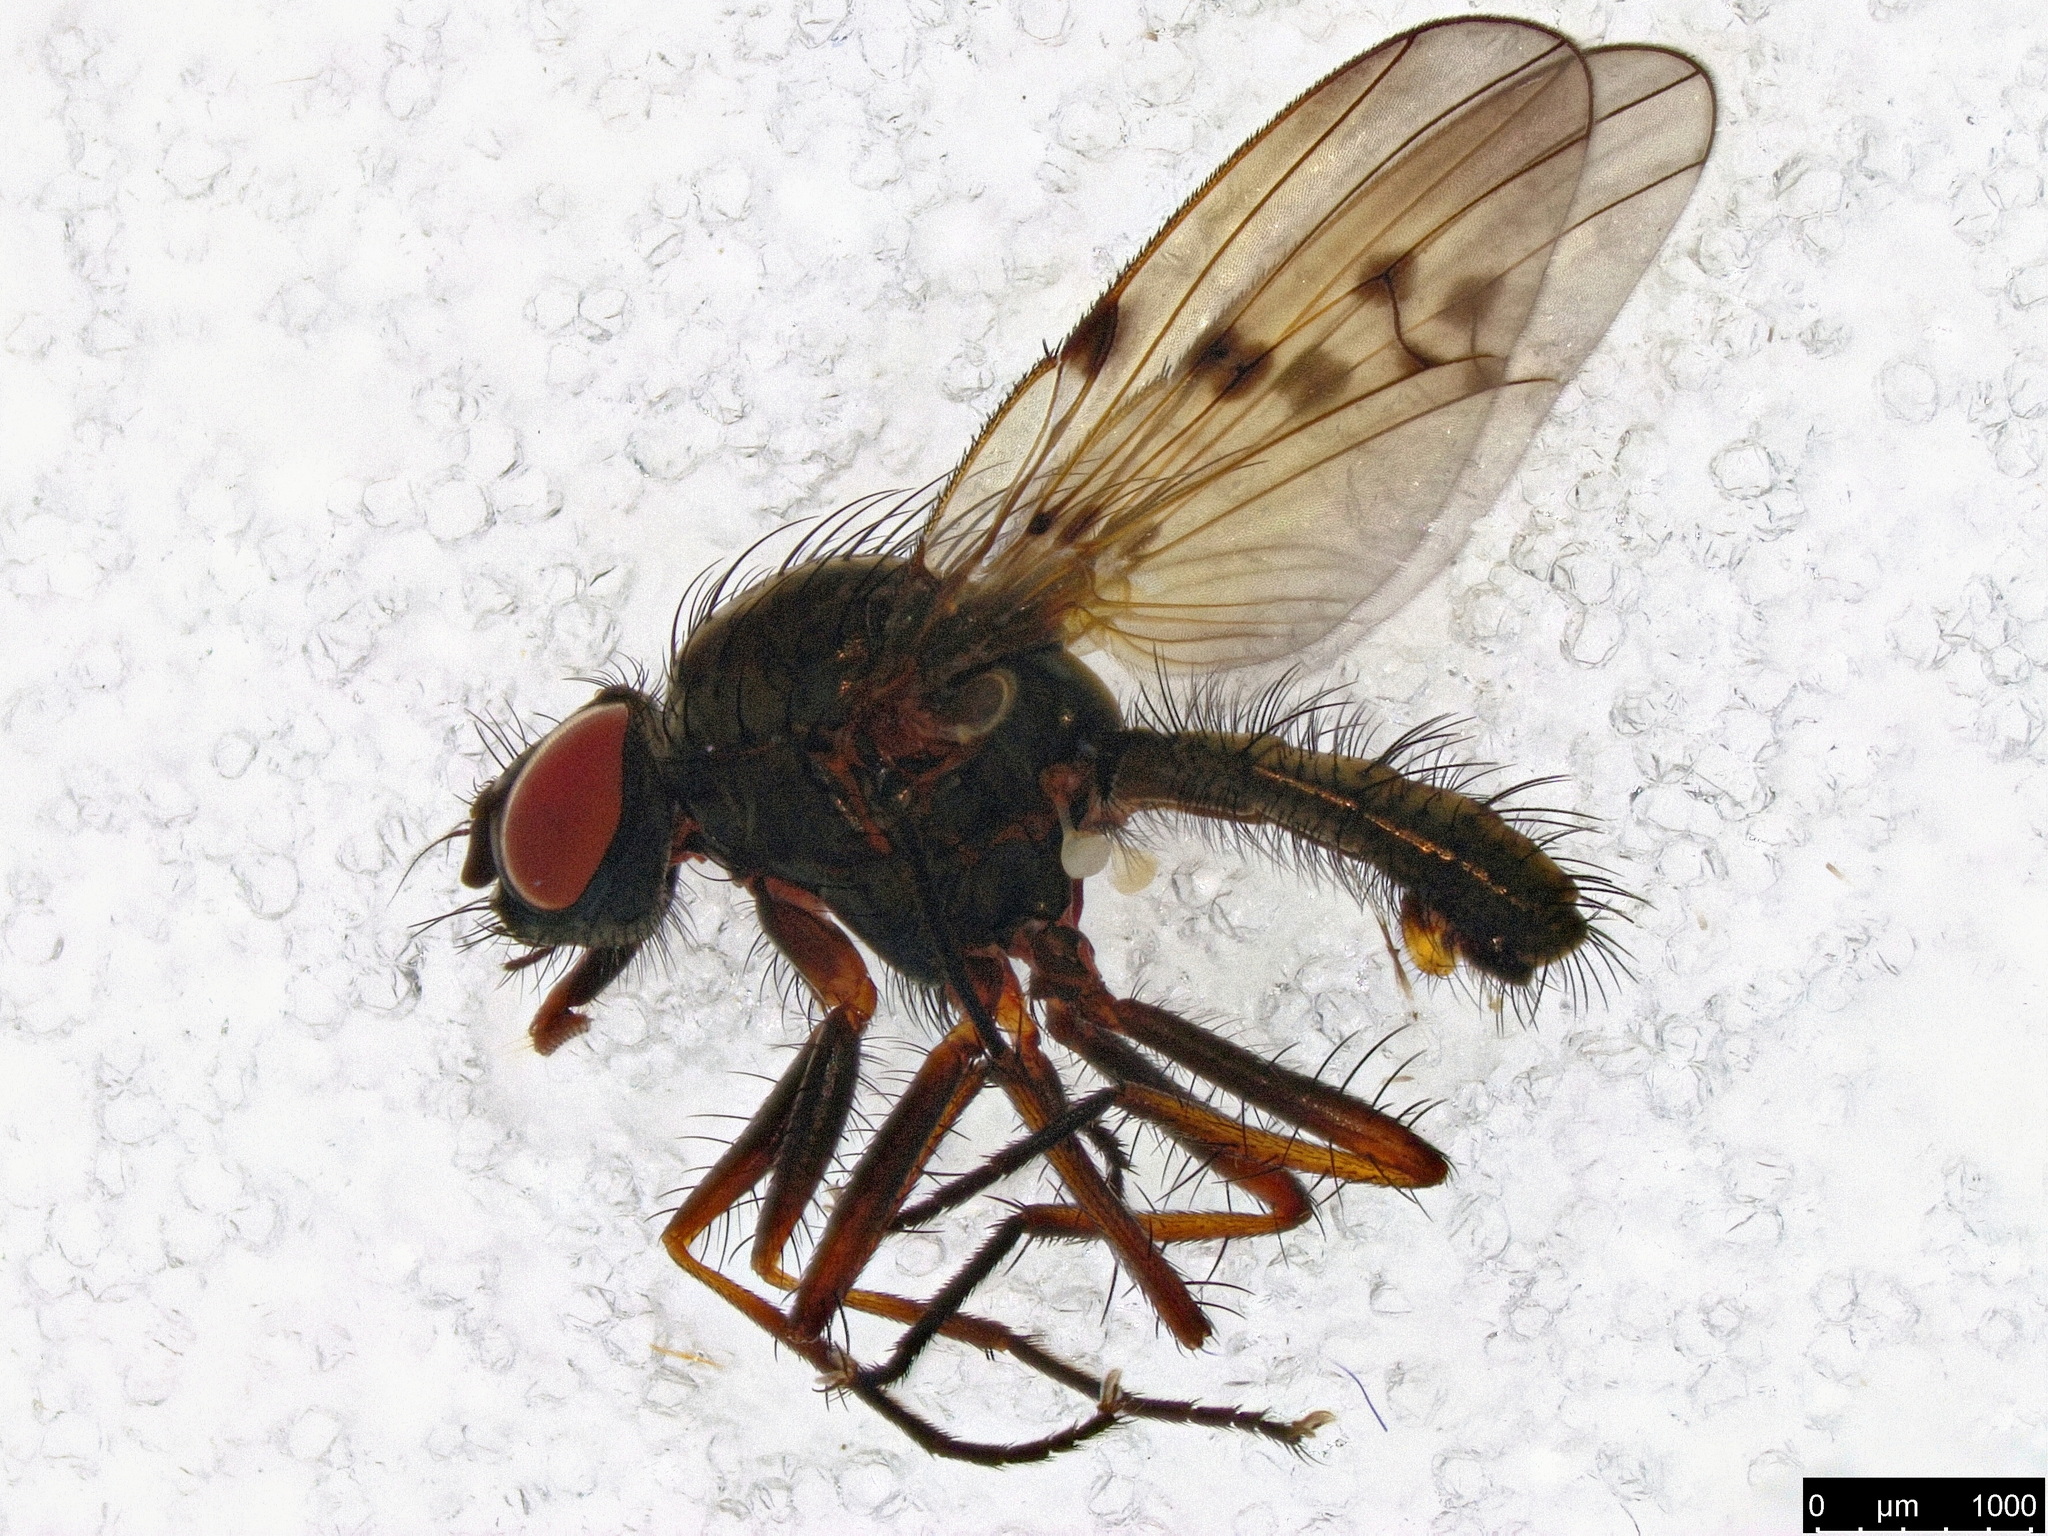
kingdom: Animalia
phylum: Arthropoda
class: Insecta
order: Diptera
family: Anthomyiidae
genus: Anthomyia
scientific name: Anthomyia punctipennis
